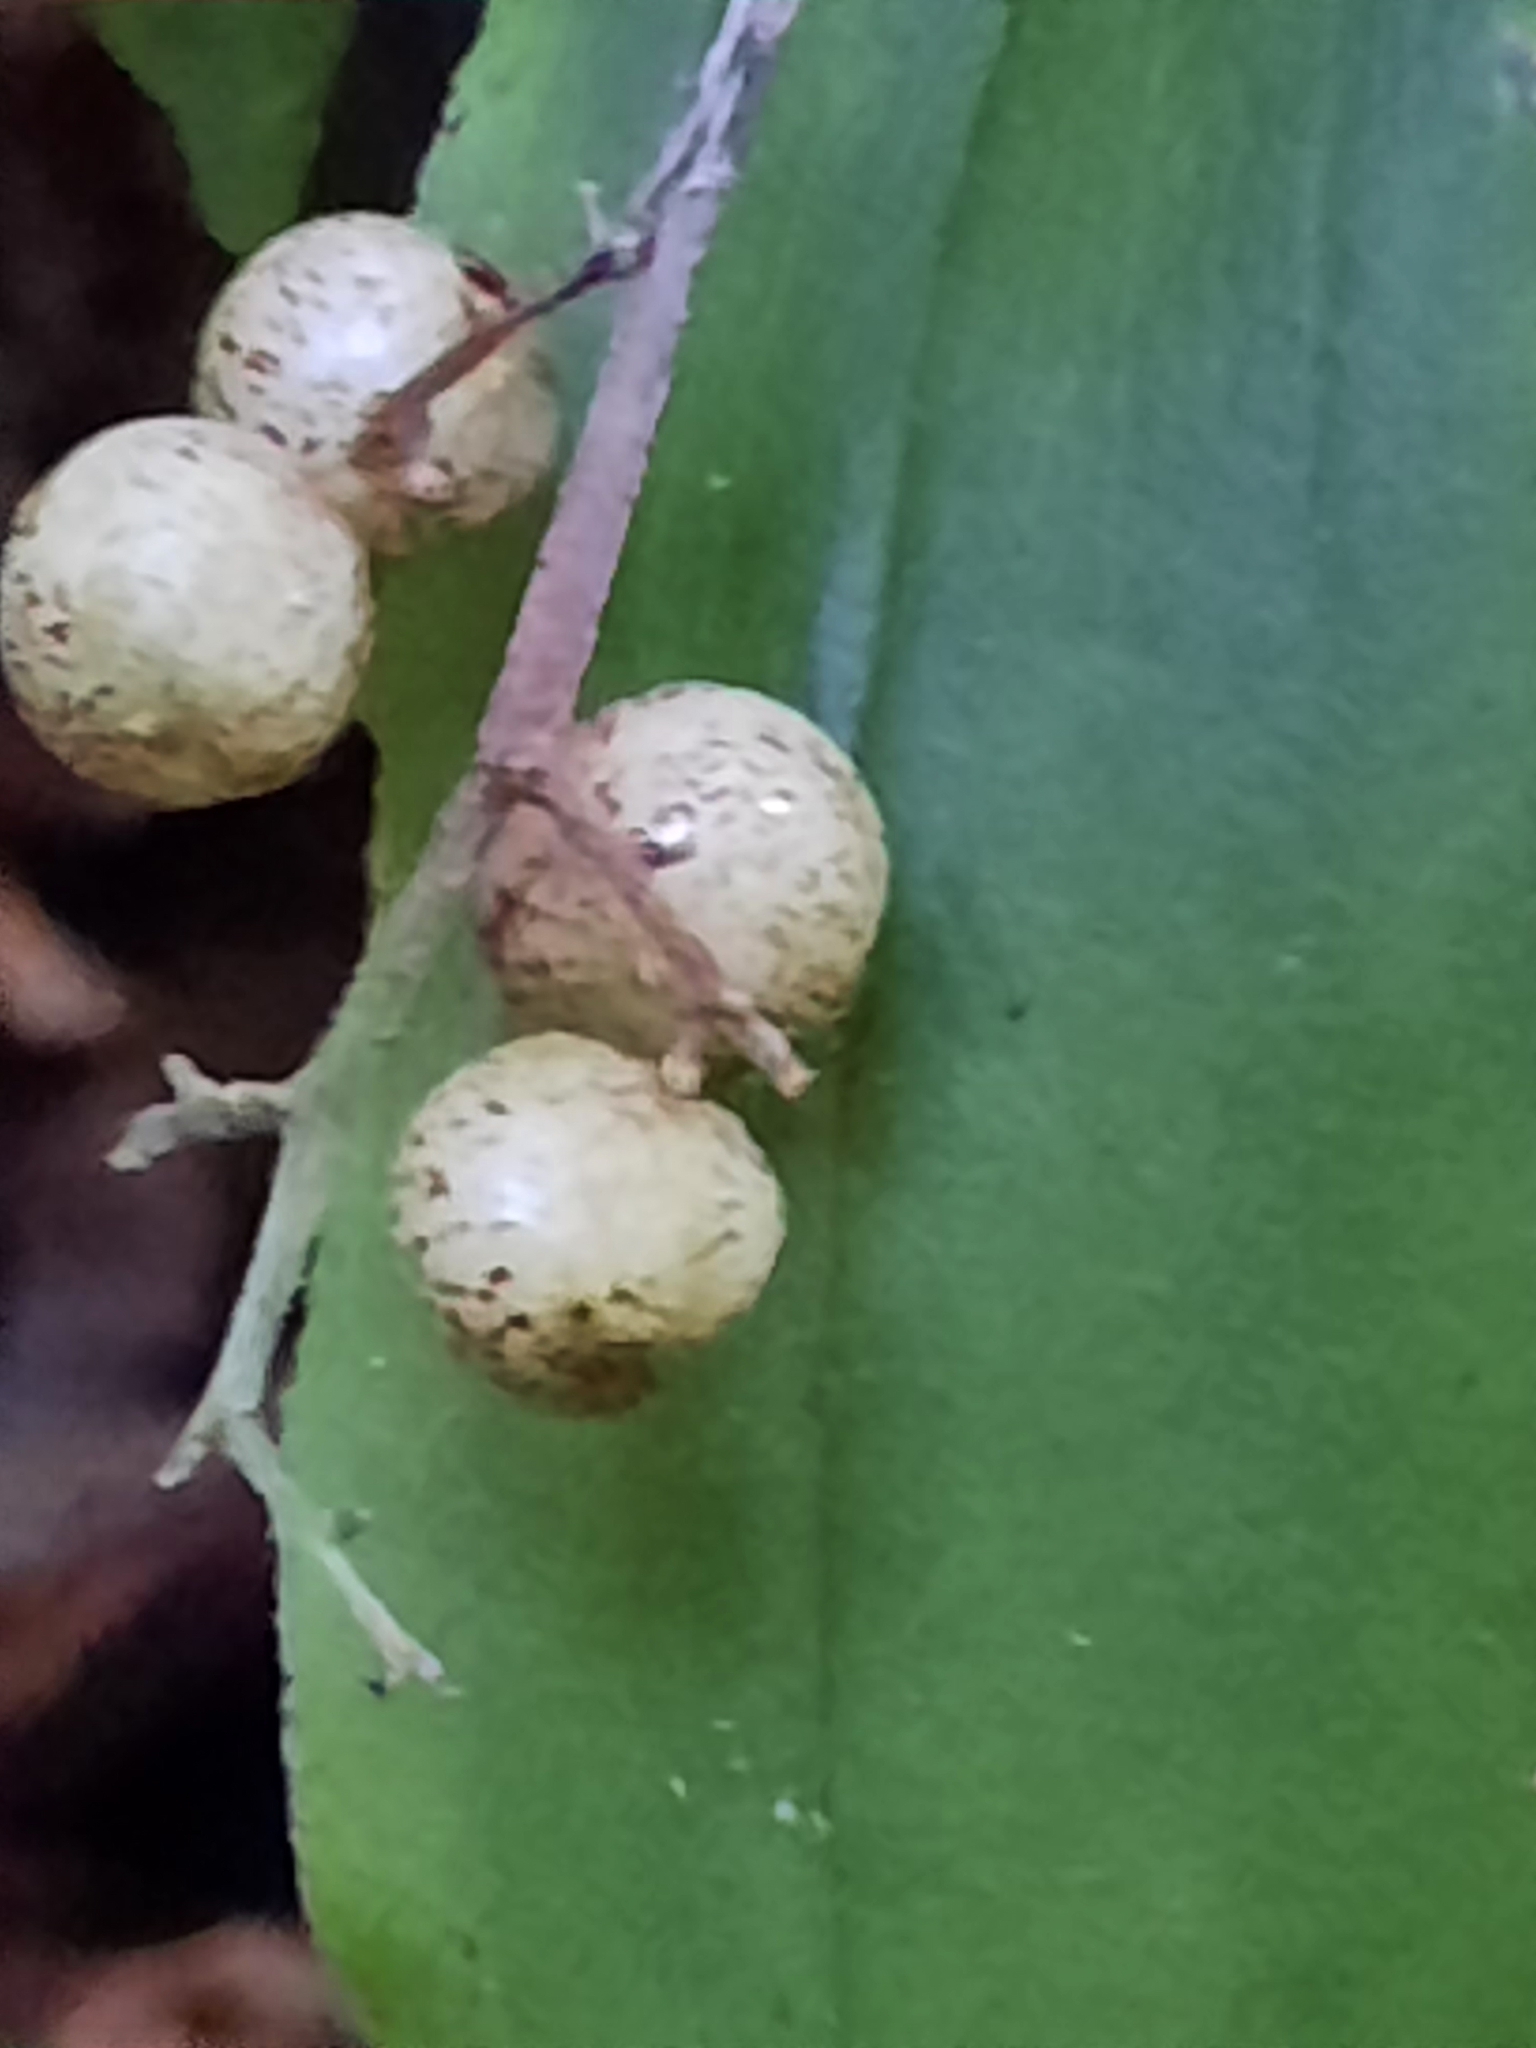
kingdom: Plantae
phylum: Tracheophyta
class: Liliopsida
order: Asparagales
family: Asparagaceae
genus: Maianthemum
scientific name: Maianthemum racemosum
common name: False spikenard
